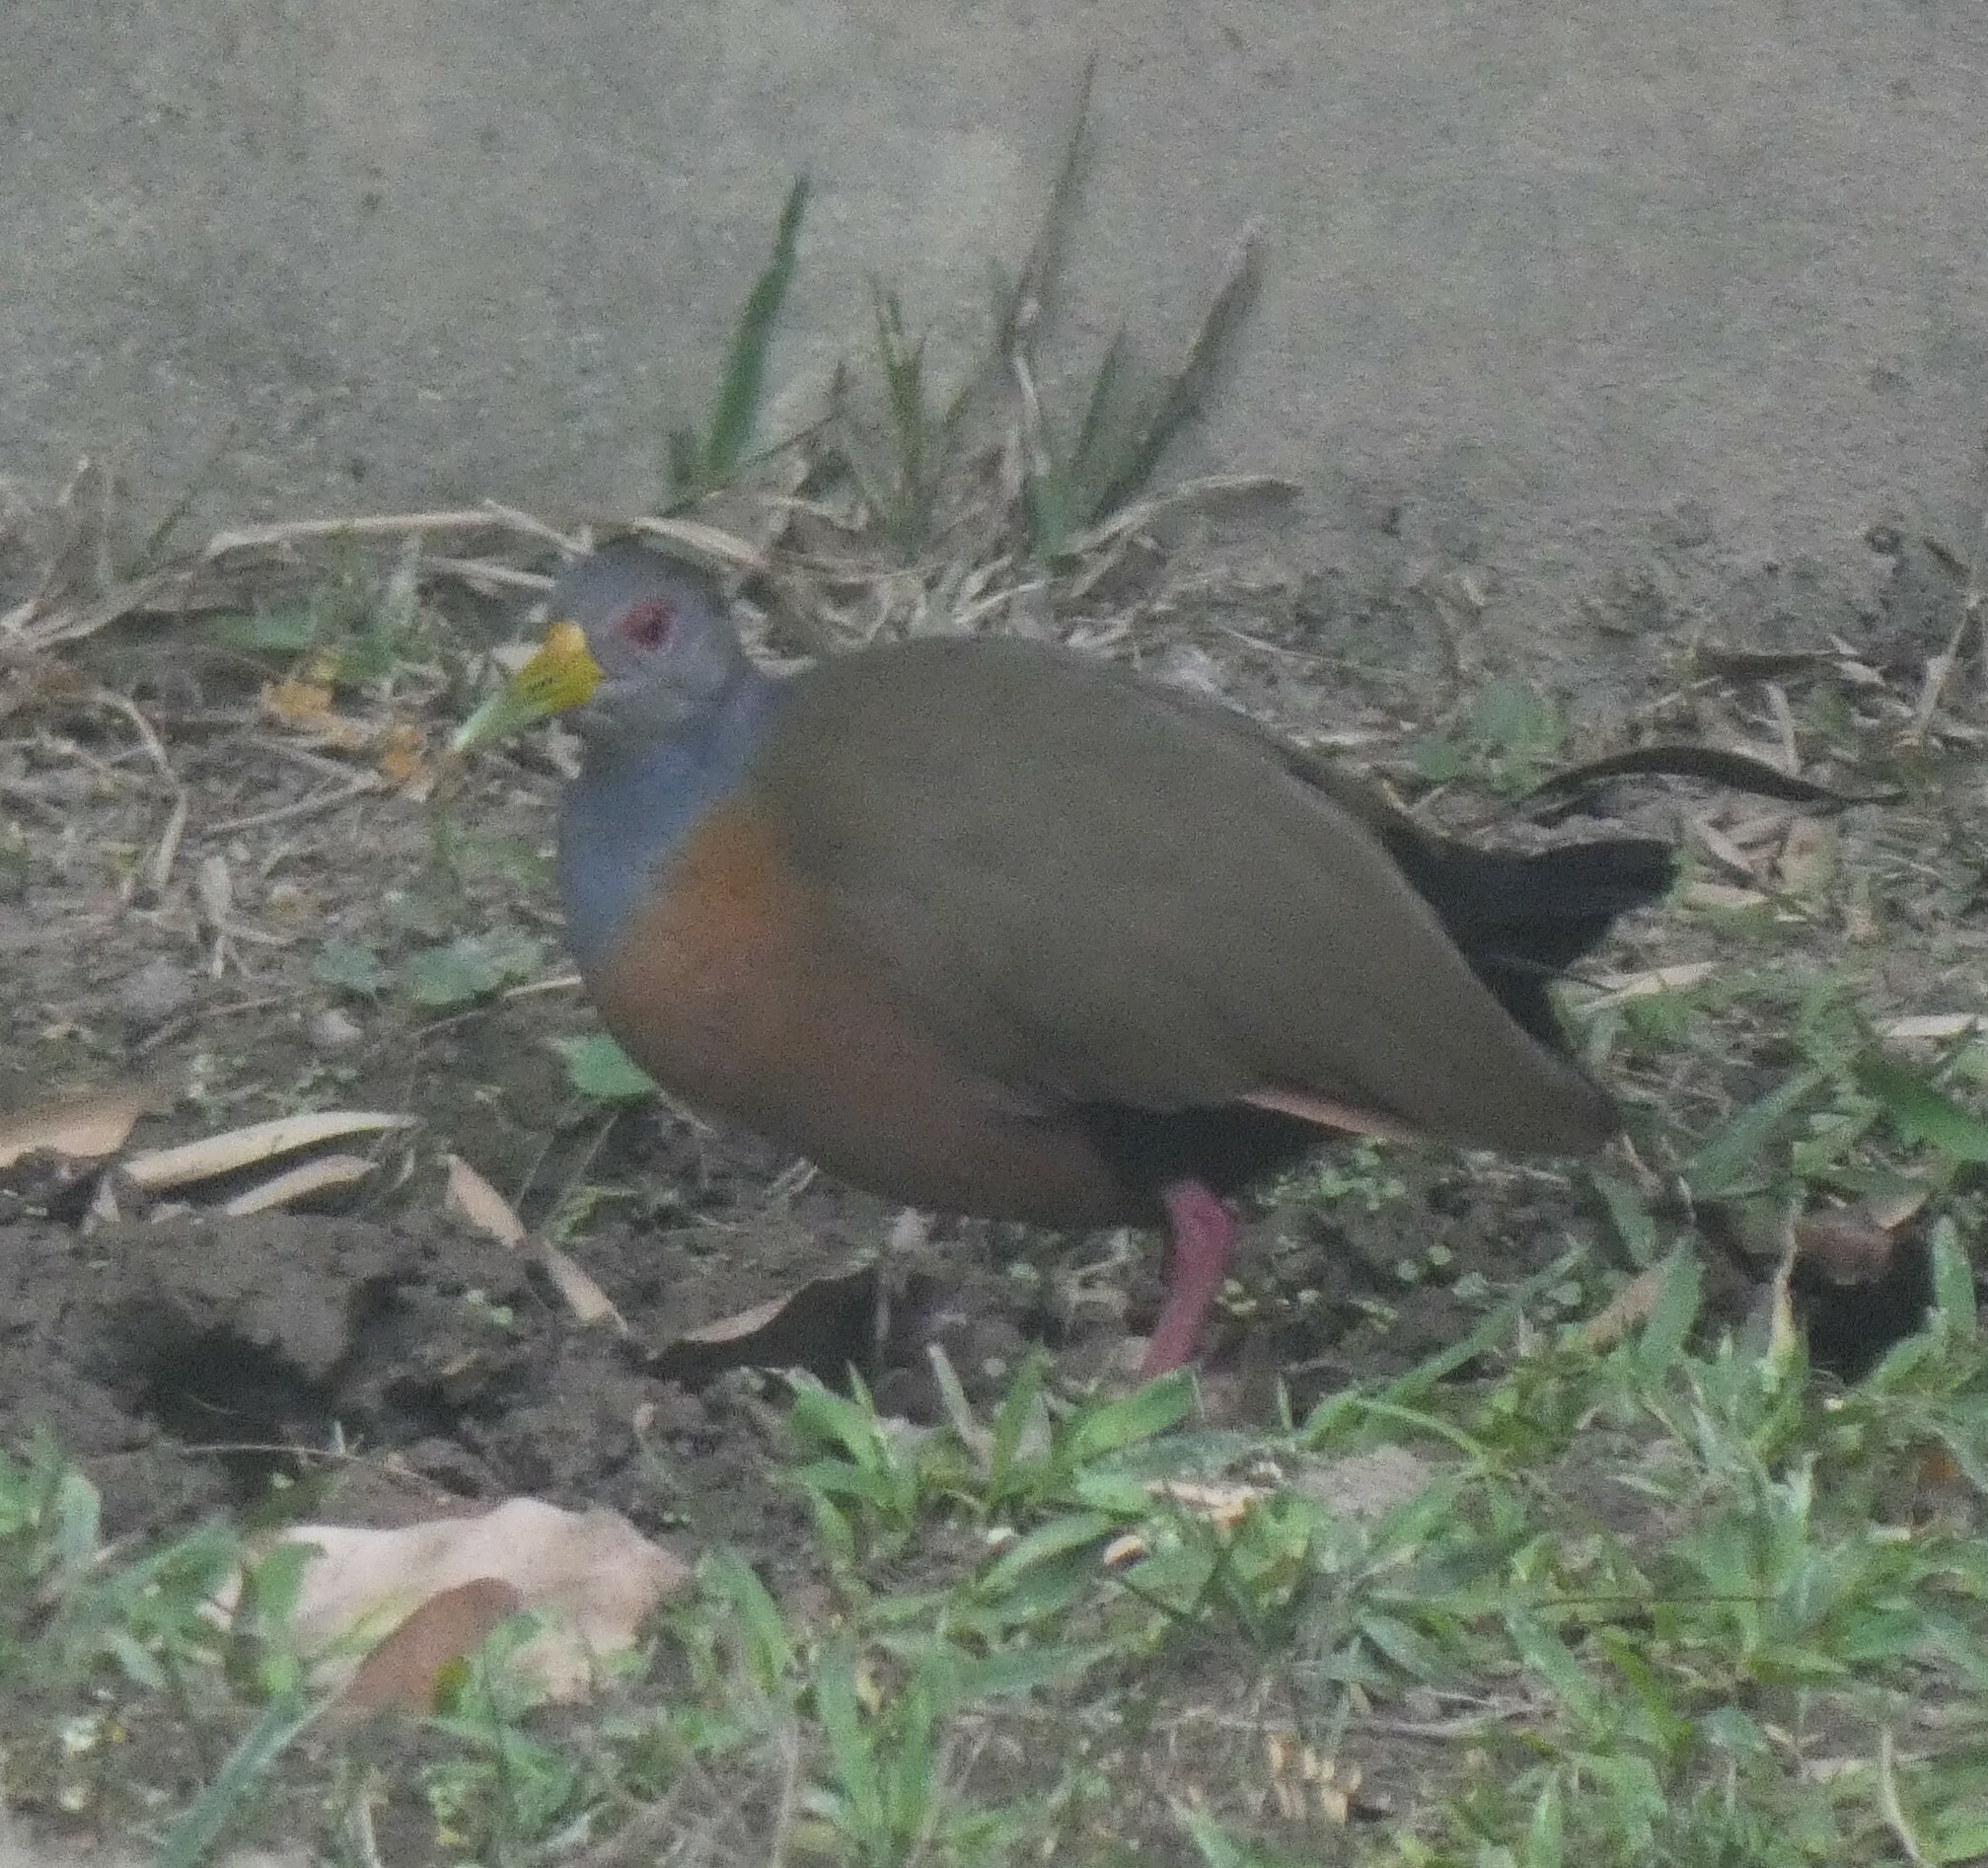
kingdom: Animalia
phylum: Chordata
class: Aves
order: Gruiformes
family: Rallidae
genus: Aramides
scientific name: Aramides cajanea
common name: Gray-necked wood-rail
